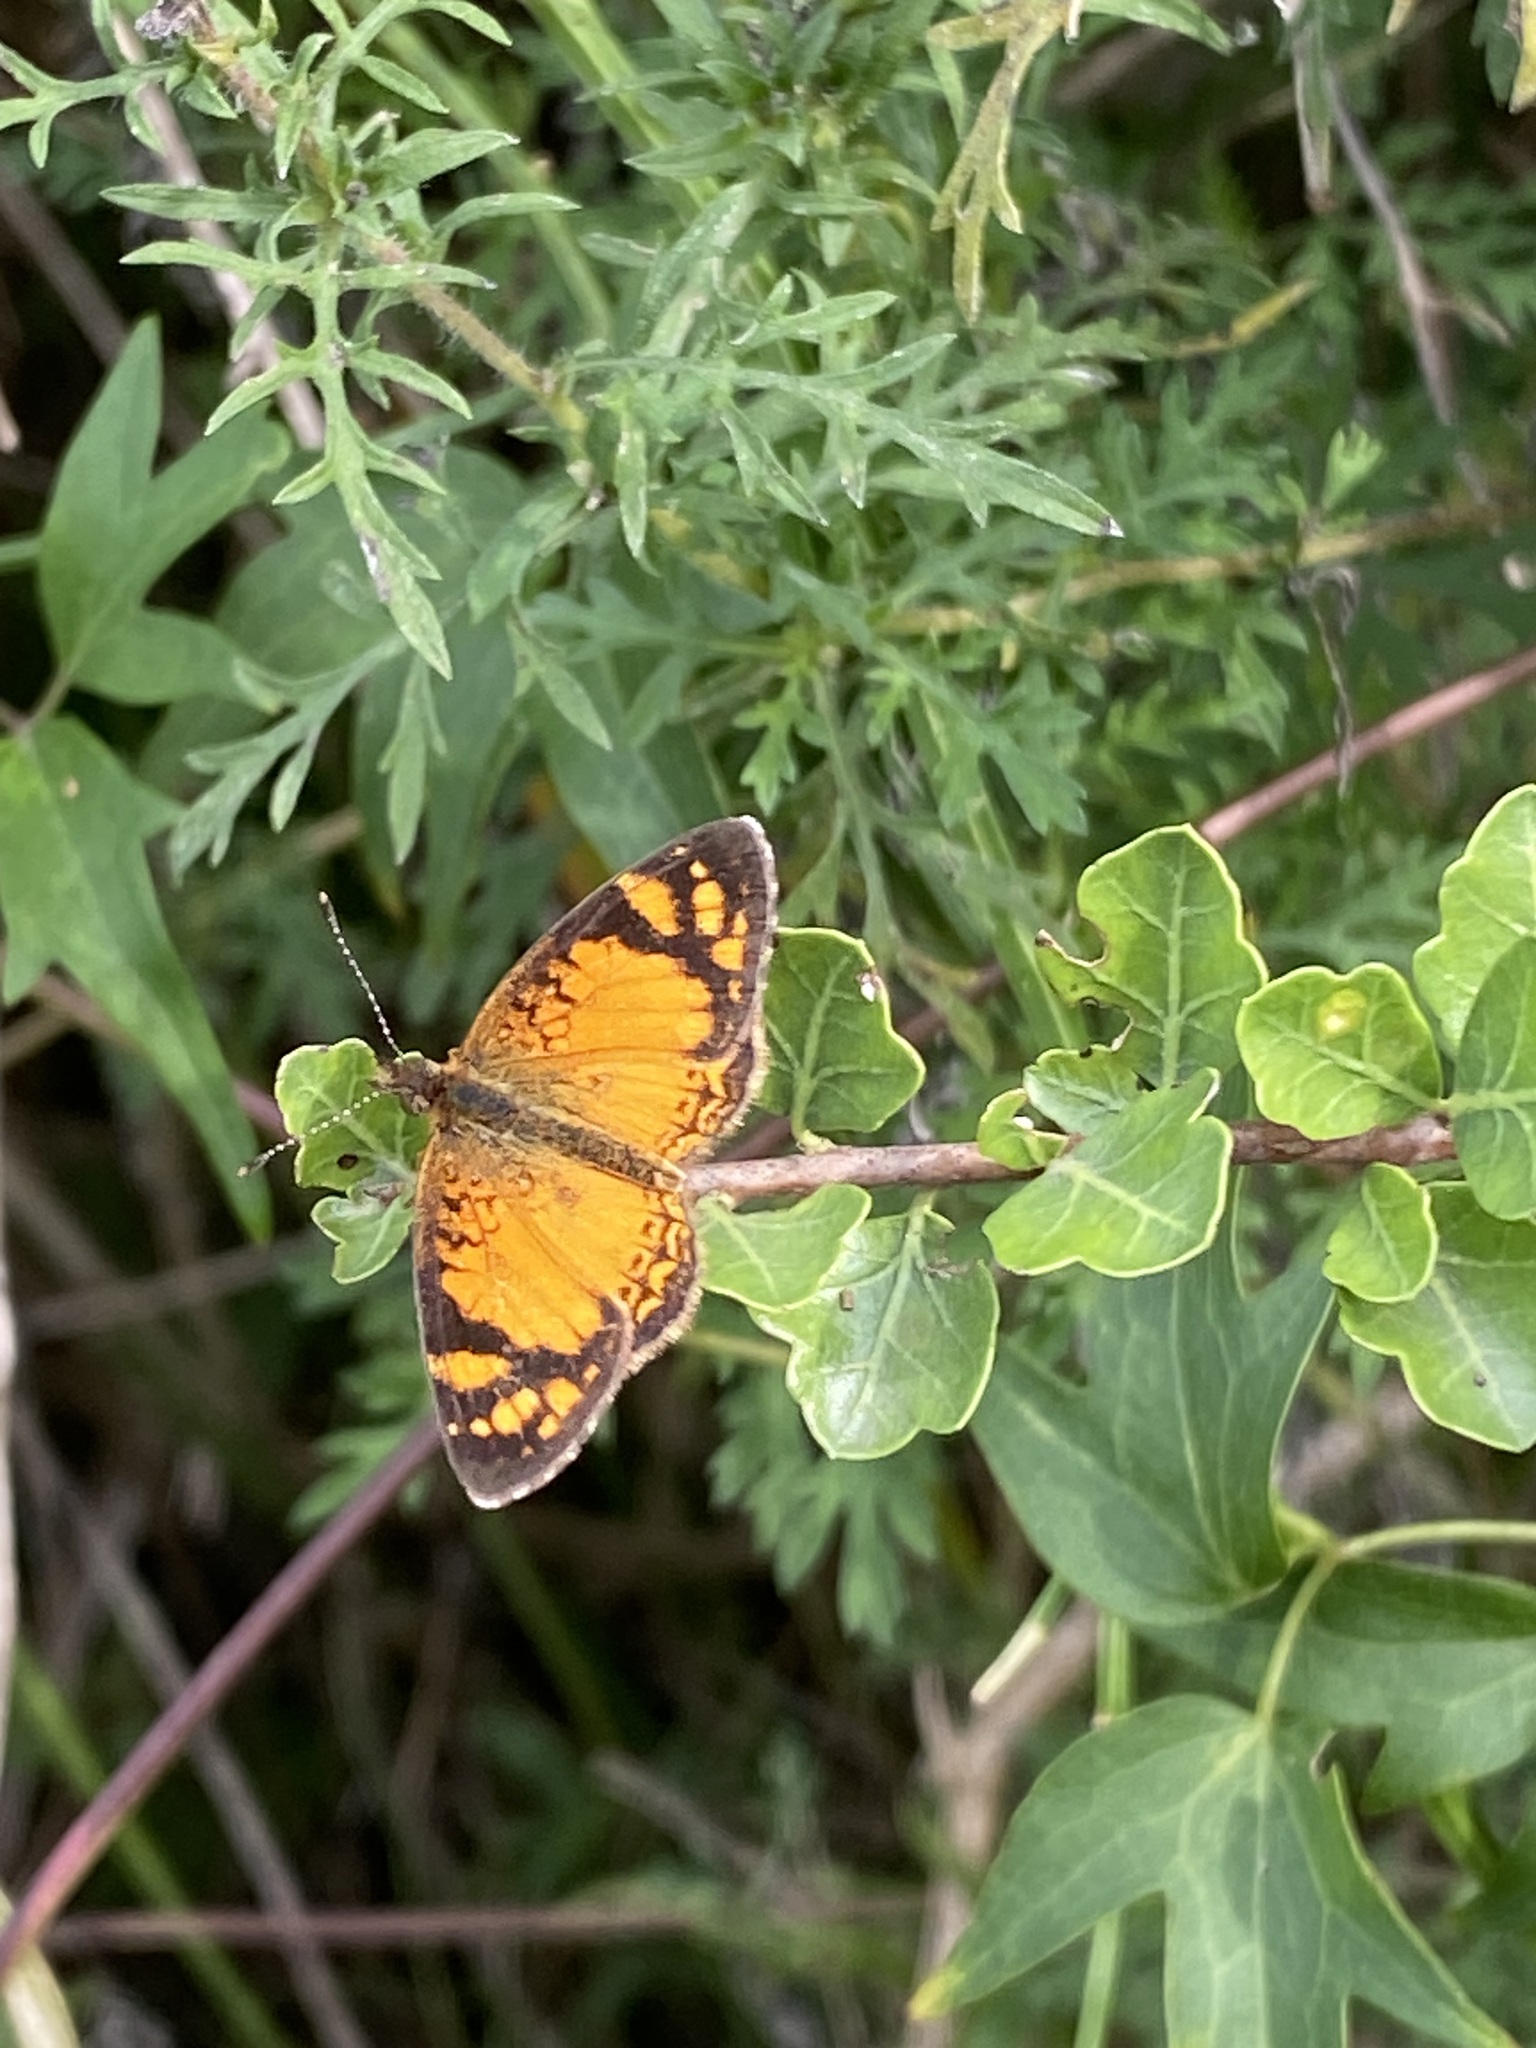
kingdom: Animalia
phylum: Arthropoda
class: Insecta
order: Lepidoptera
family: Nymphalidae
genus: Tegosa
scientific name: Tegosa orobia
